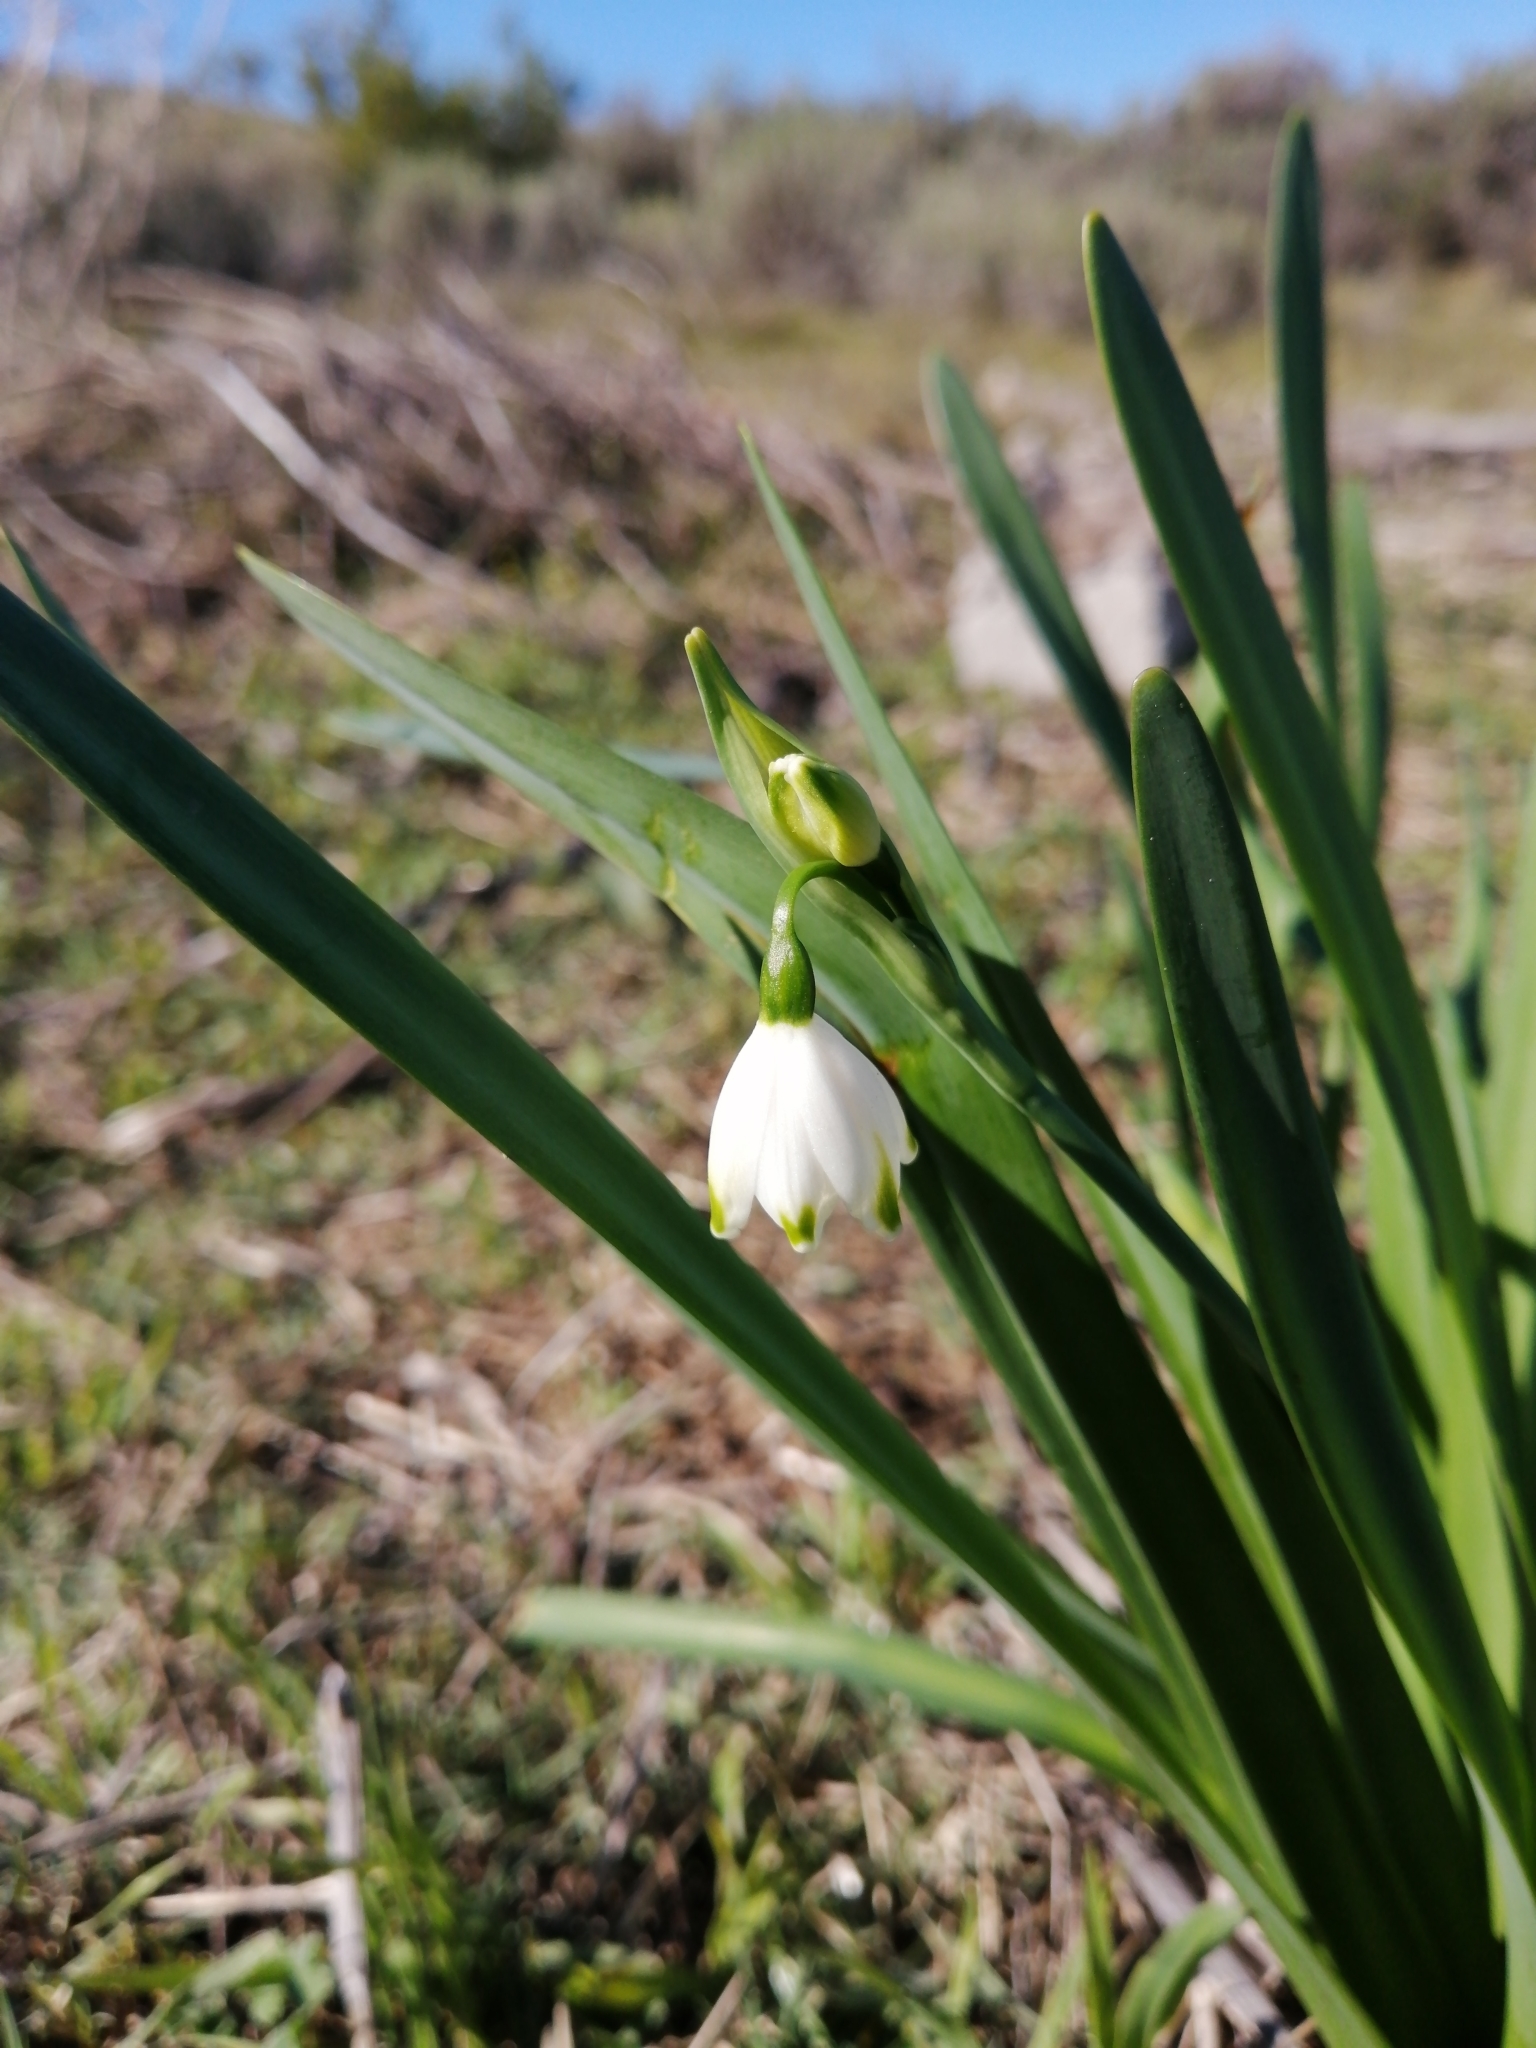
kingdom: Plantae
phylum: Tracheophyta
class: Liliopsida
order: Asparagales
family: Amaryllidaceae
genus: Leucojum
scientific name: Leucojum aestivum
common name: Summer snowflake
